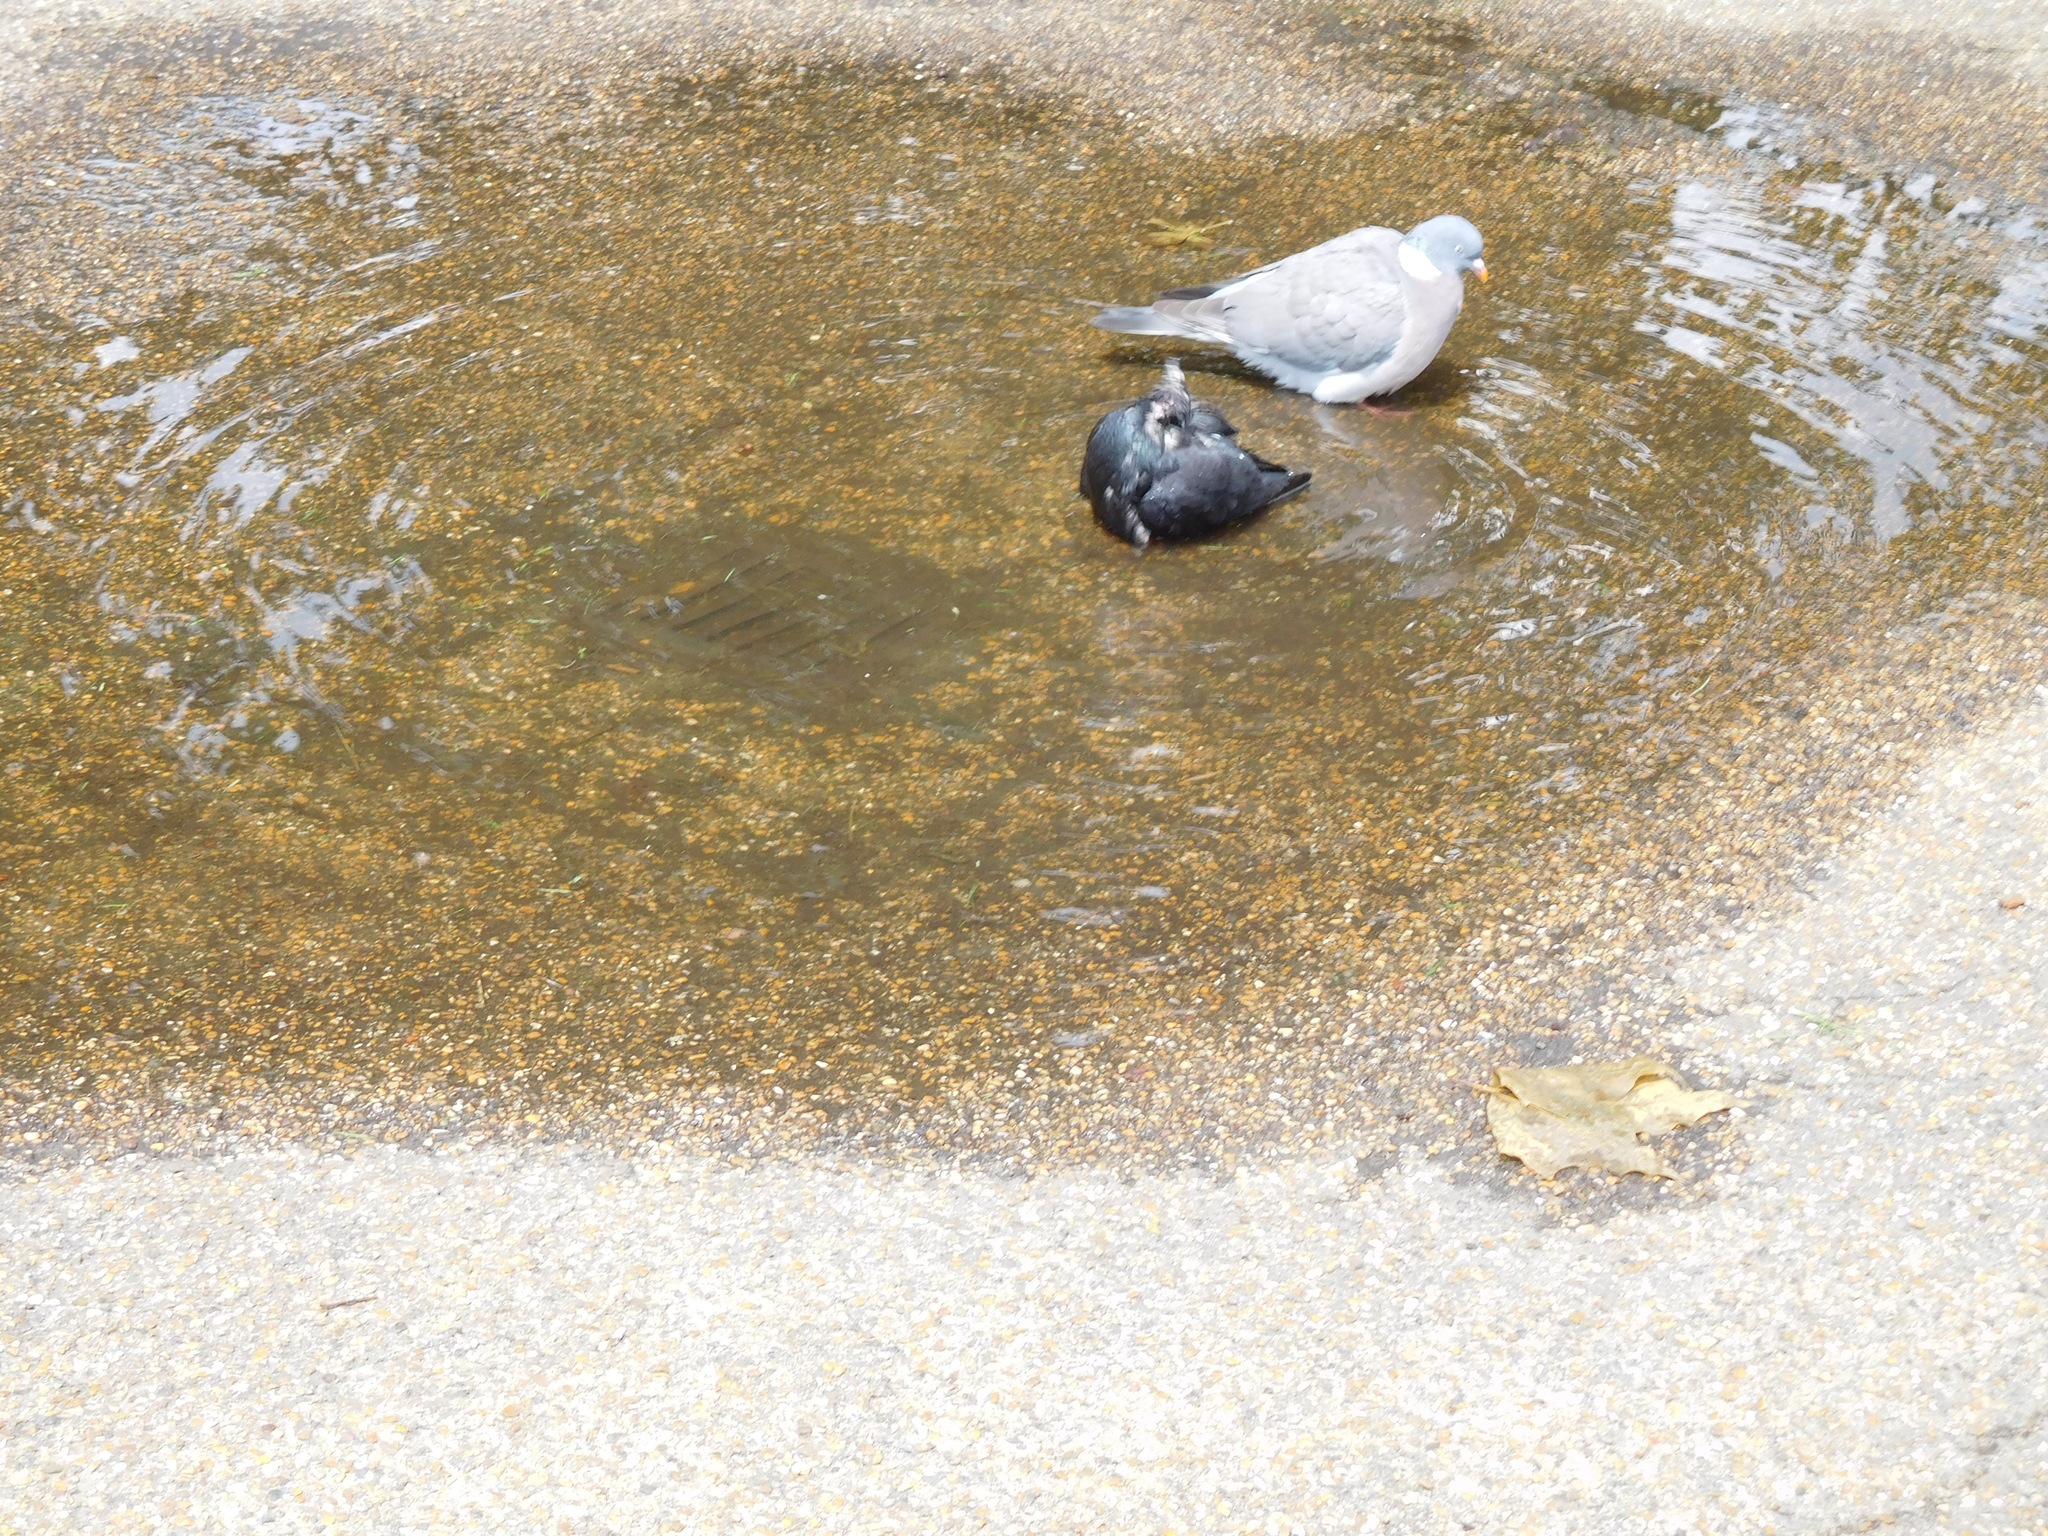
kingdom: Animalia
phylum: Chordata
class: Aves
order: Columbiformes
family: Columbidae
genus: Columba
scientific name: Columba palumbus
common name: Common wood pigeon
